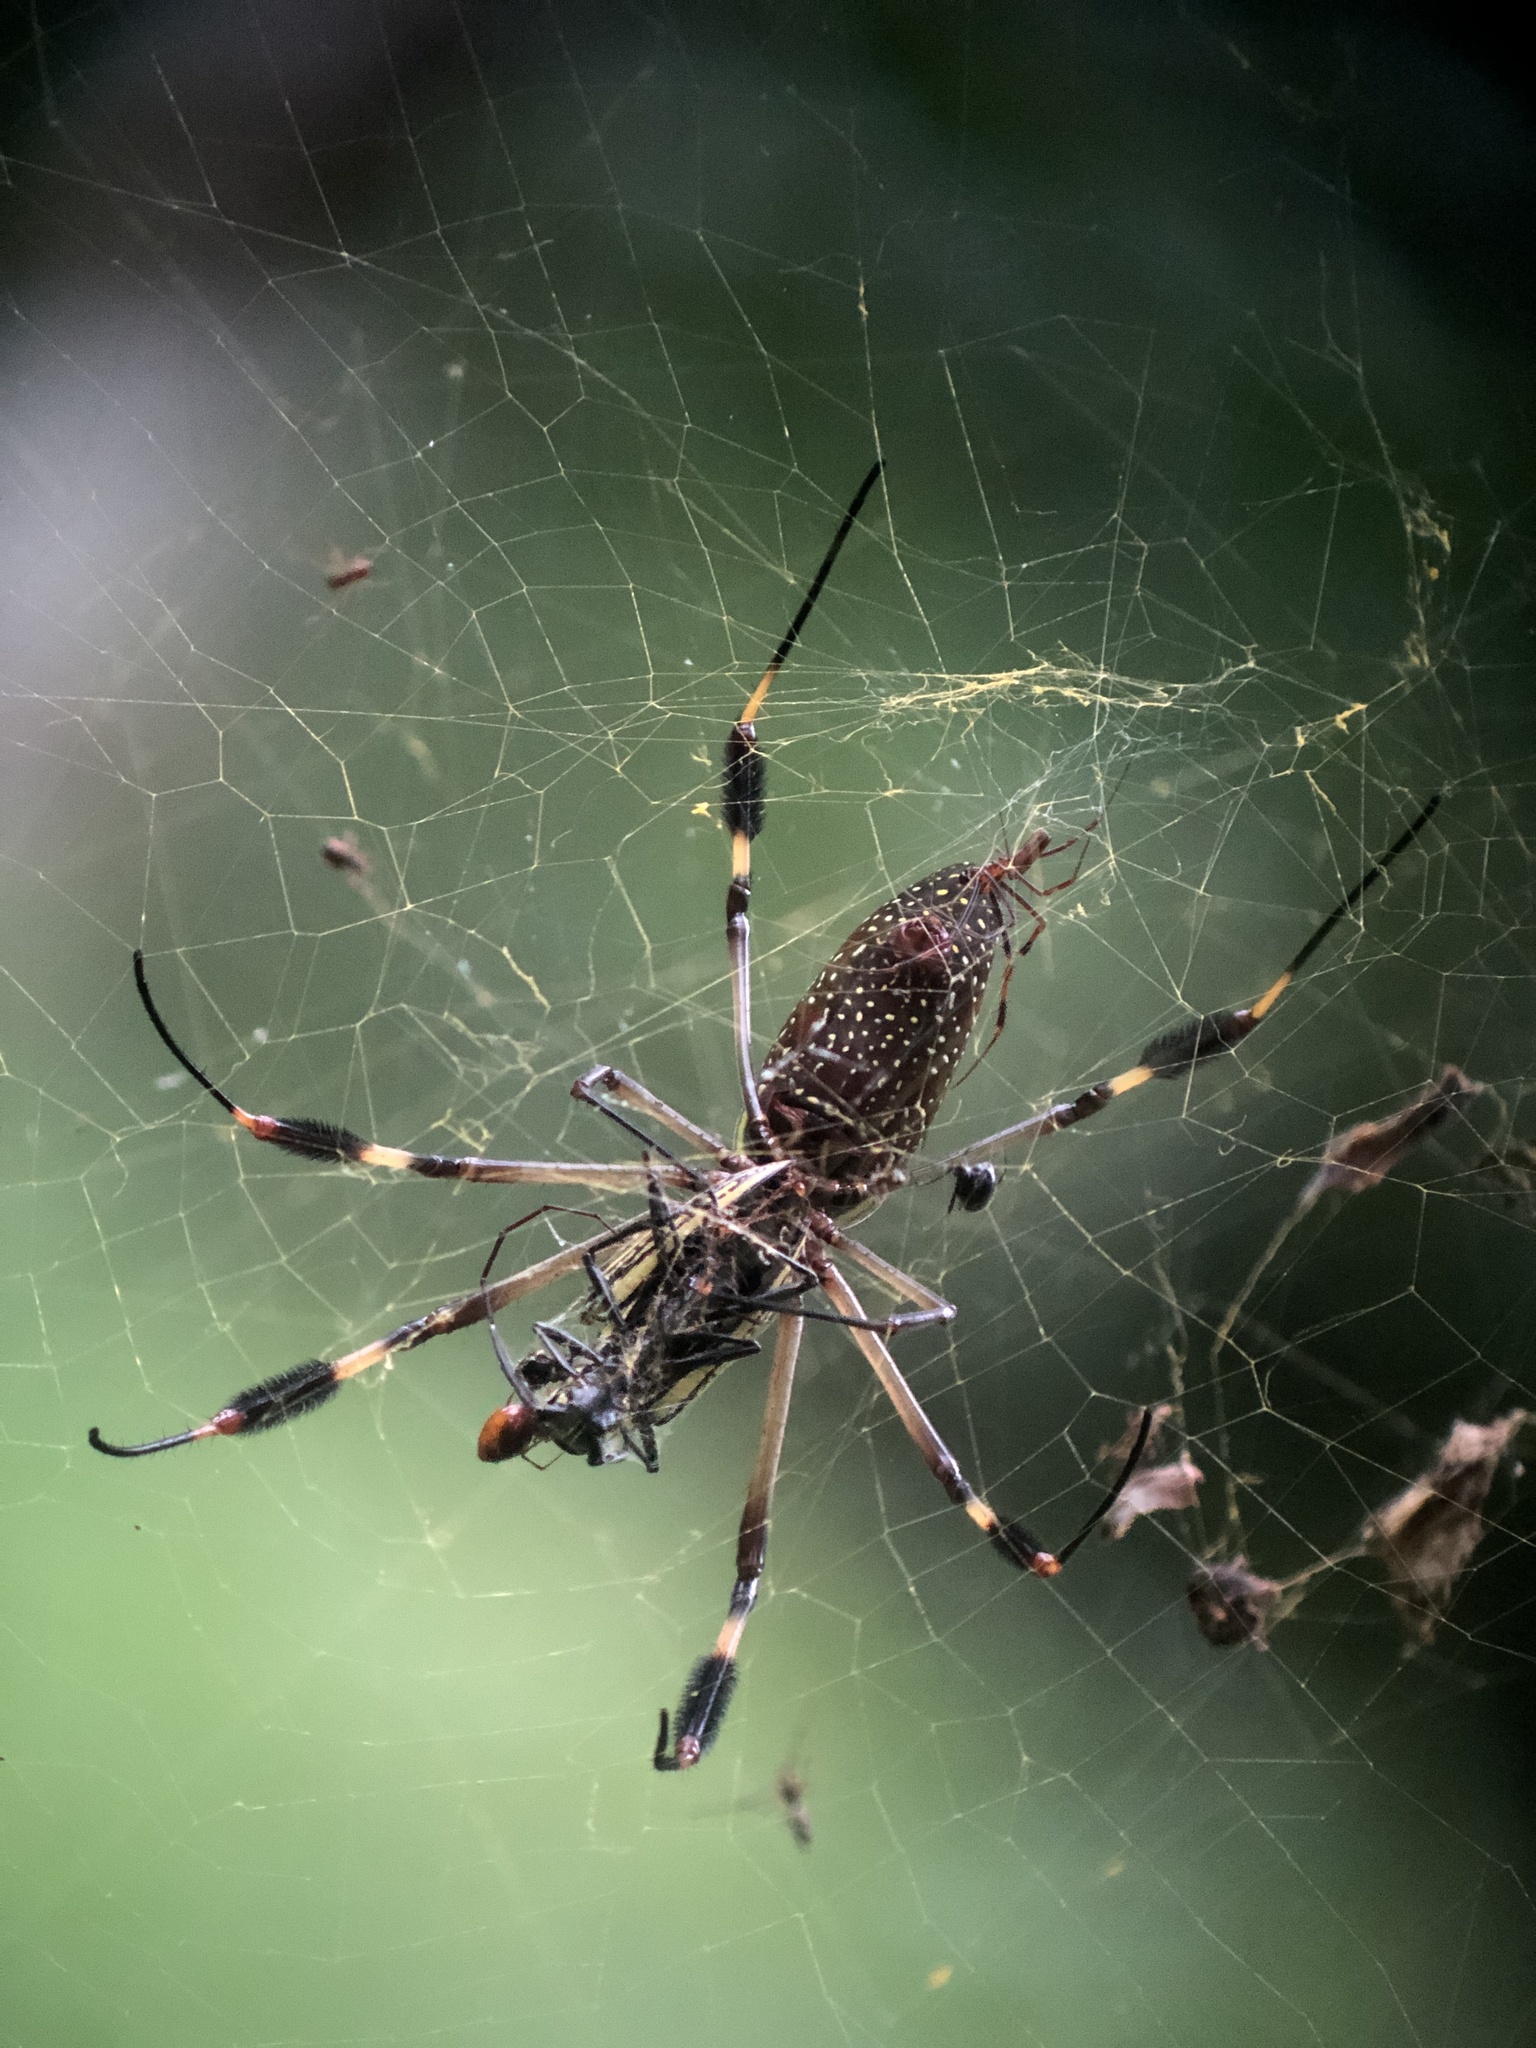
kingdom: Animalia
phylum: Arthropoda
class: Arachnida
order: Araneae
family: Araneidae
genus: Trichonephila
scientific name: Trichonephila clavipes
